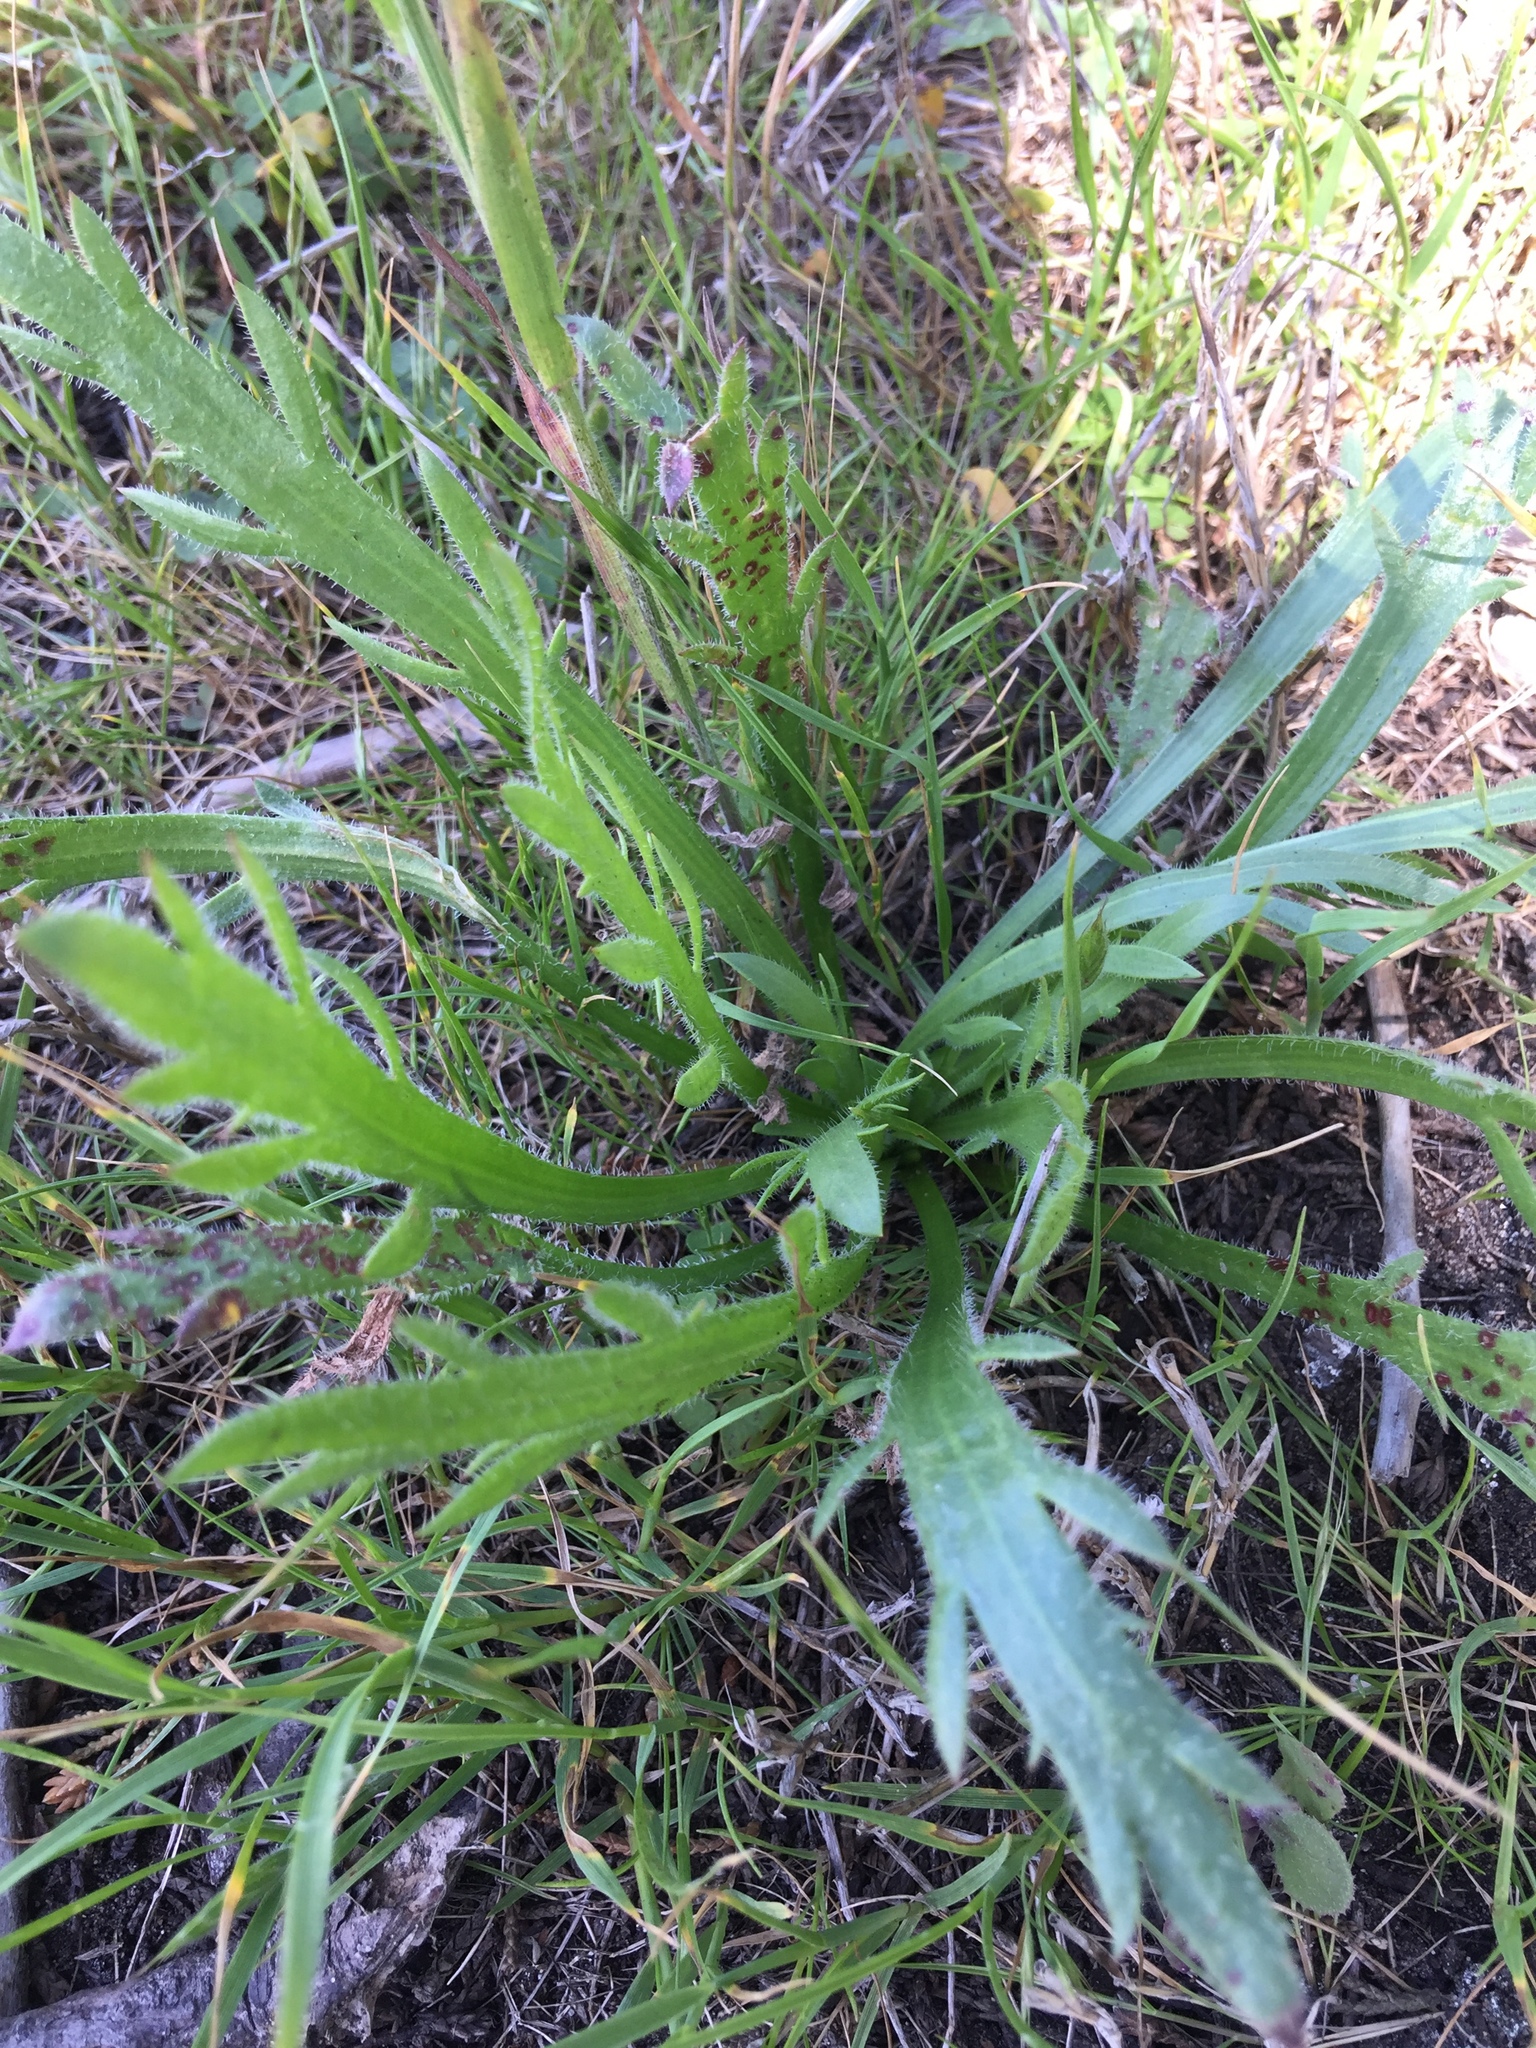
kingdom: Plantae
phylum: Tracheophyta
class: Magnoliopsida
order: Lamiales
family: Plantaginaceae
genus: Plantago
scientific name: Plantago coronopus
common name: Buck's-horn plantain
